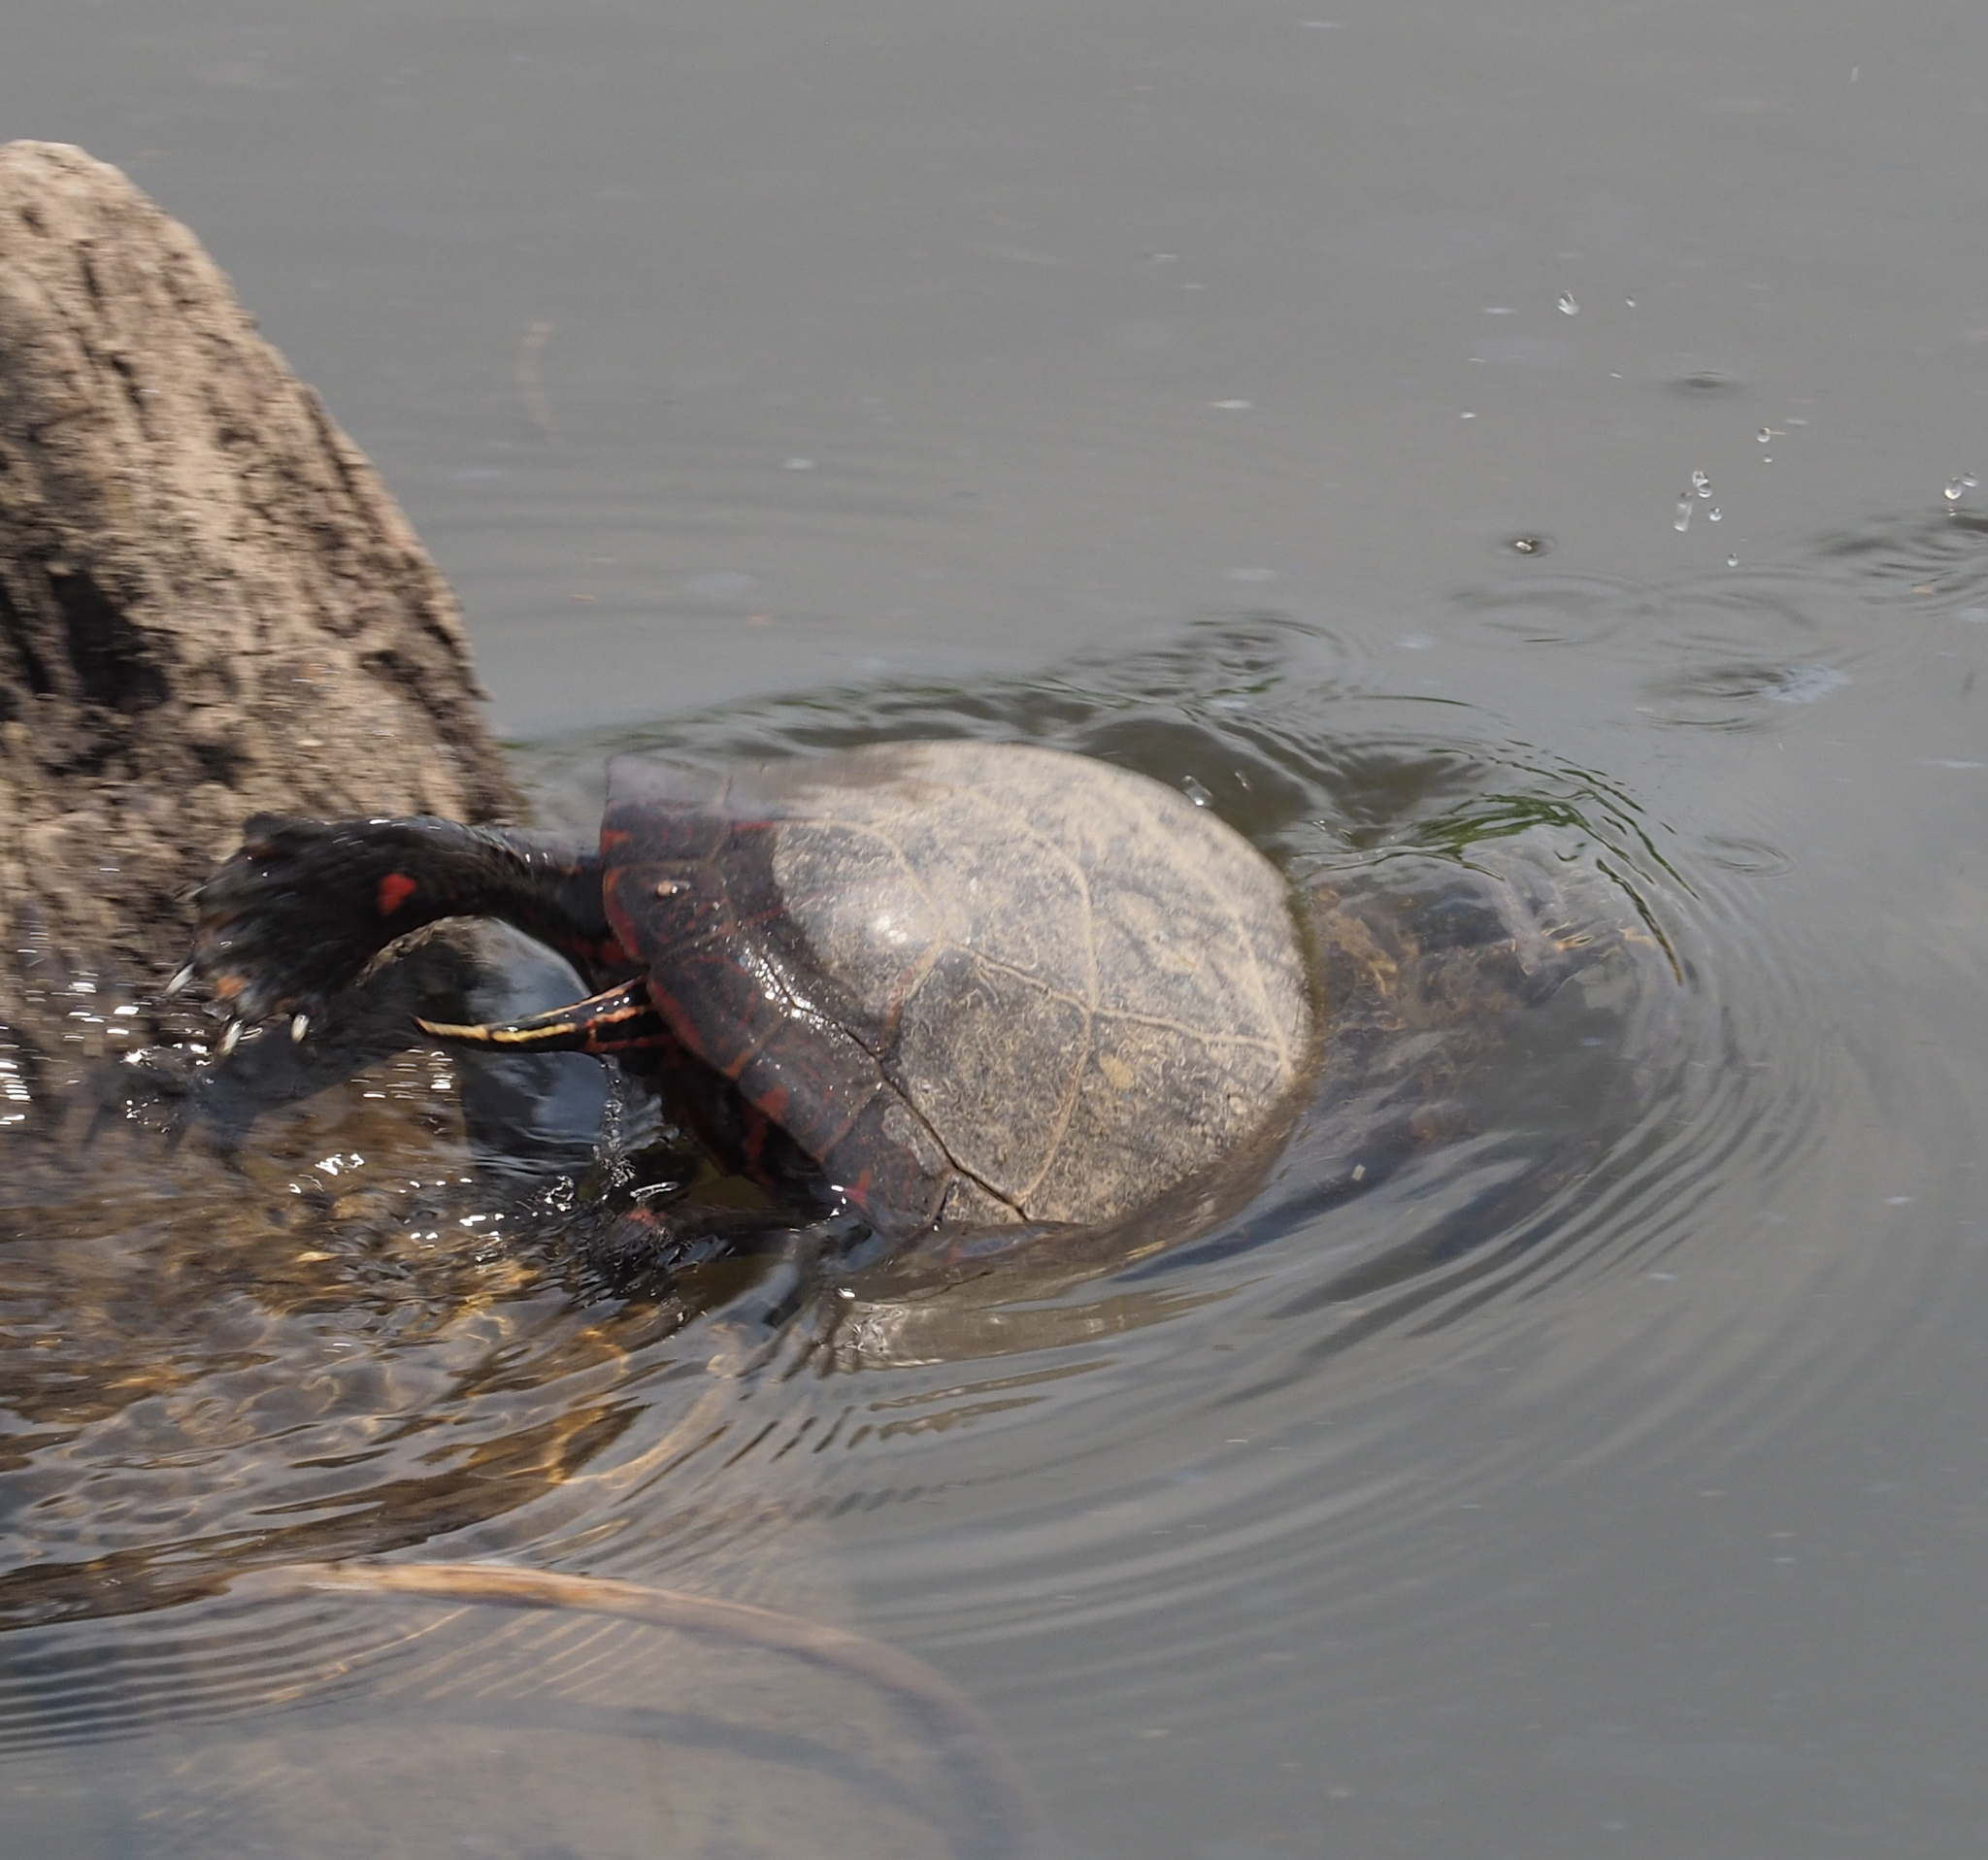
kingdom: Animalia
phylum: Chordata
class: Testudines
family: Emydidae
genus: Chrysemys
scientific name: Chrysemys picta
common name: Painted turtle
